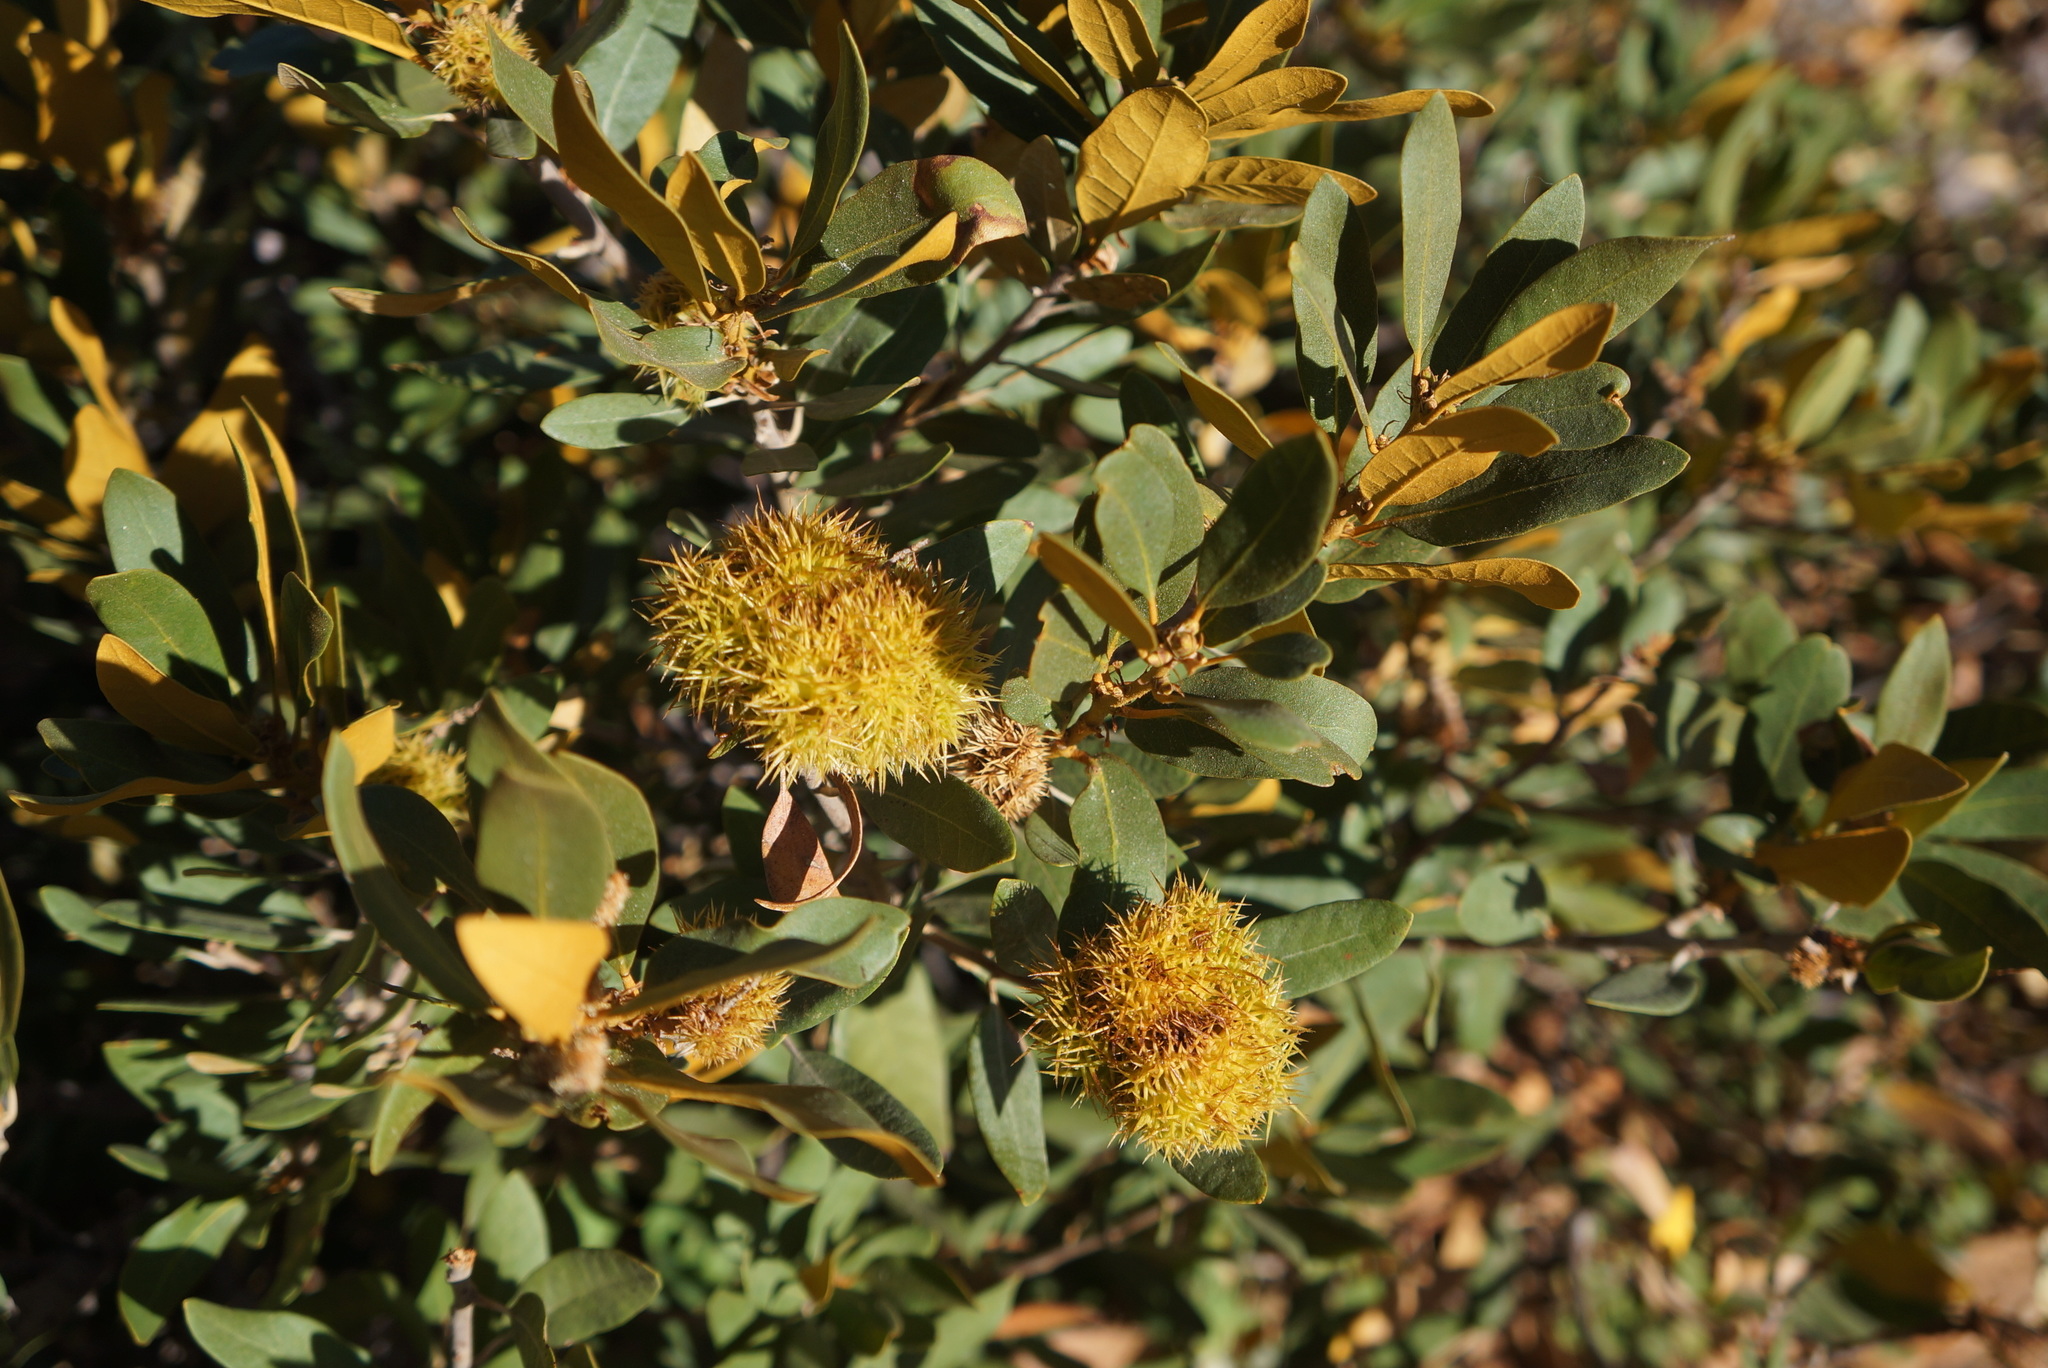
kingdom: Plantae
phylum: Tracheophyta
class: Magnoliopsida
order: Fagales
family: Fagaceae
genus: Chrysolepis
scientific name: Chrysolepis sempervirens
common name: Bush chinquapin
